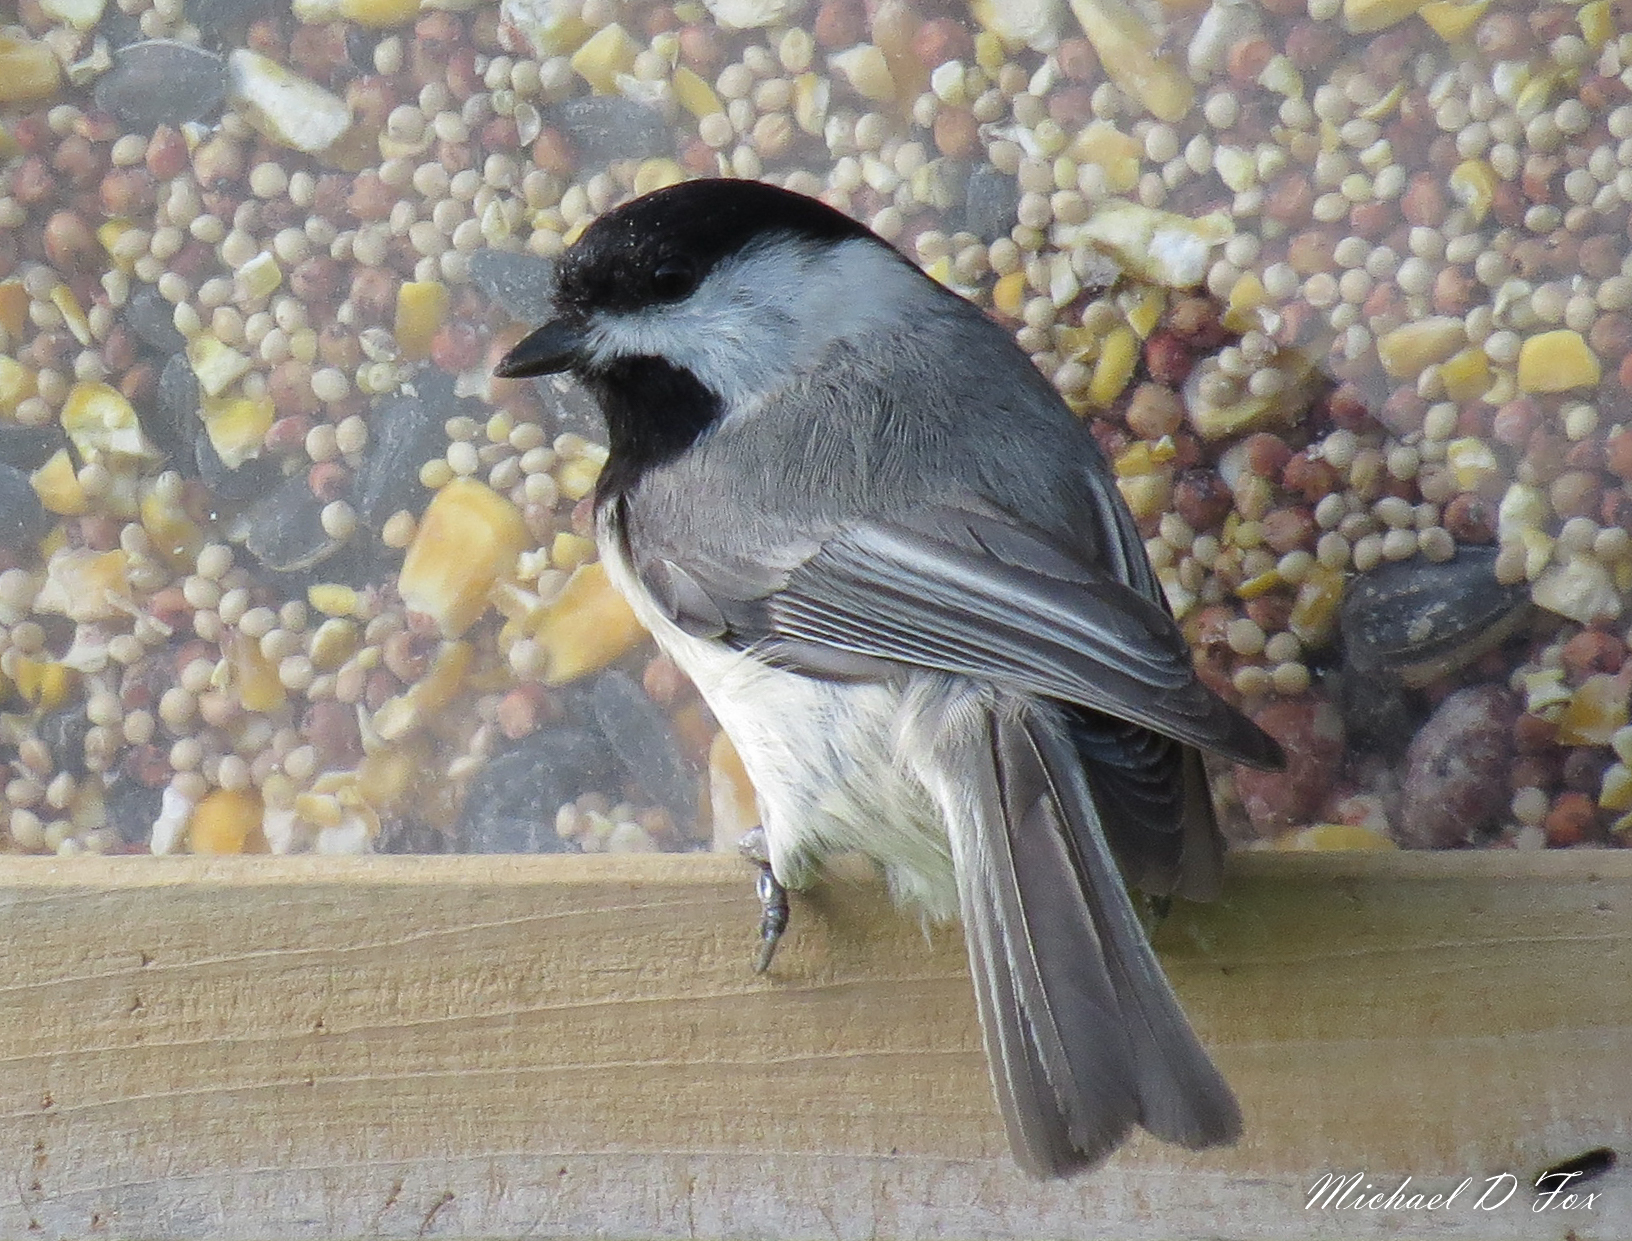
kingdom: Animalia
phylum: Chordata
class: Aves
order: Passeriformes
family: Paridae
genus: Poecile
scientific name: Poecile carolinensis
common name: Carolina chickadee
